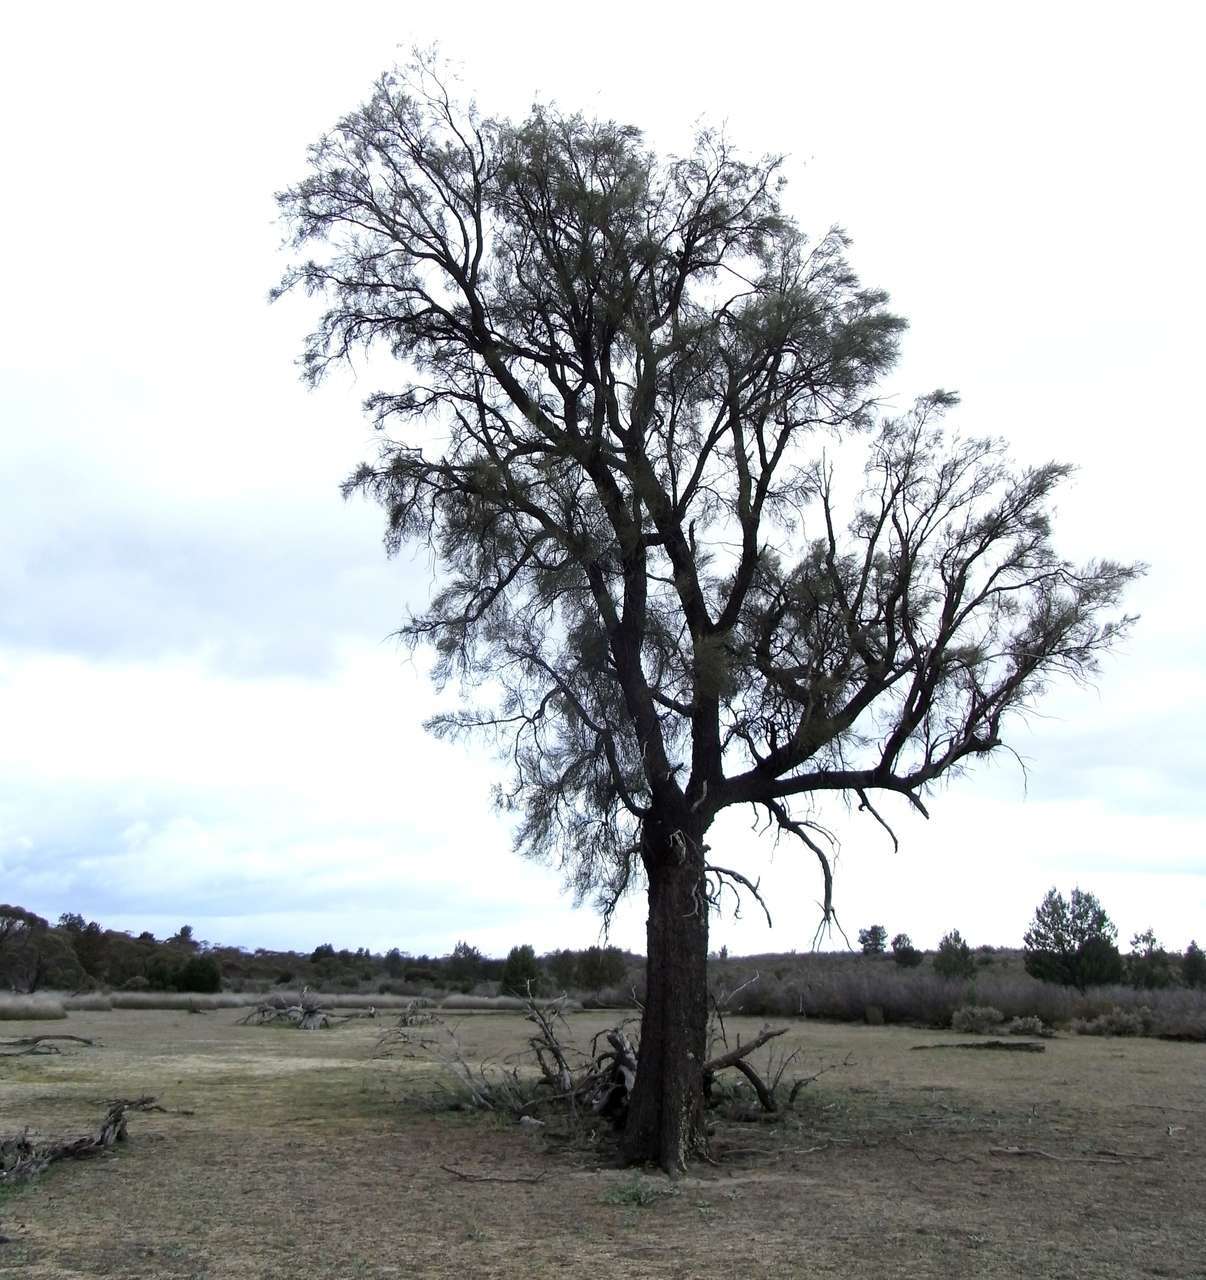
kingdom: Plantae
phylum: Tracheophyta
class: Magnoliopsida
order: Fagales
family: Casuarinaceae
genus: Allocasuarina
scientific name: Allocasuarina luehmannii
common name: Bull-oak
